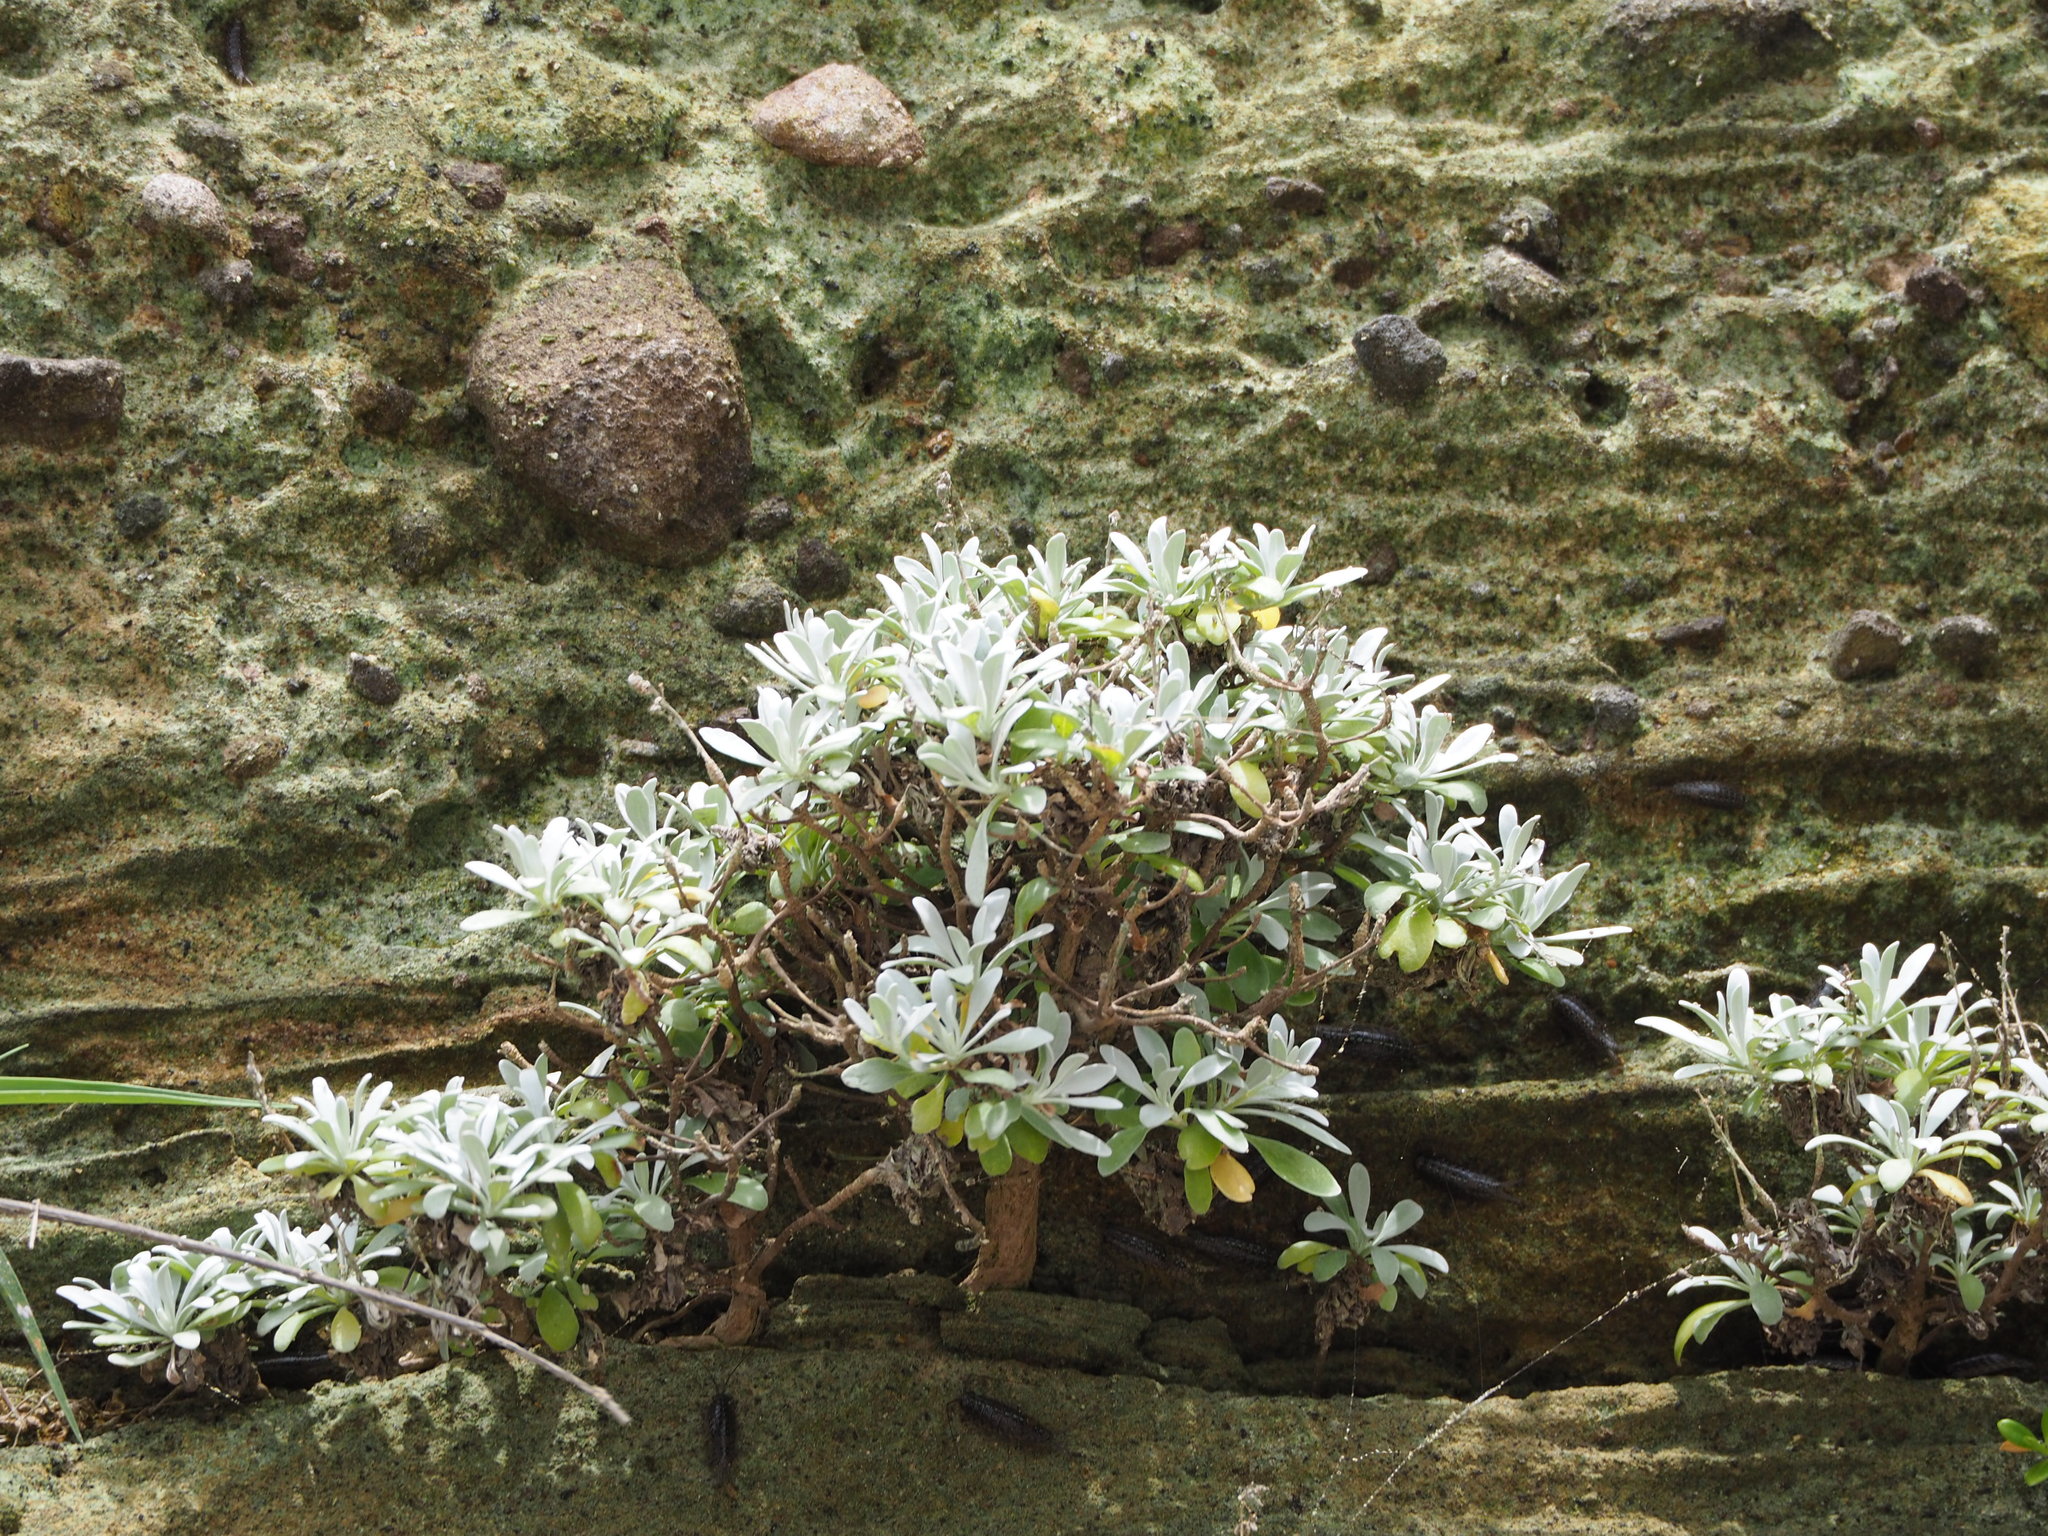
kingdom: Plantae
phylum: Tracheophyta
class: Magnoliopsida
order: Asterales
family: Asteraceae
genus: Crossostephium
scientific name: Crossostephium chinense
